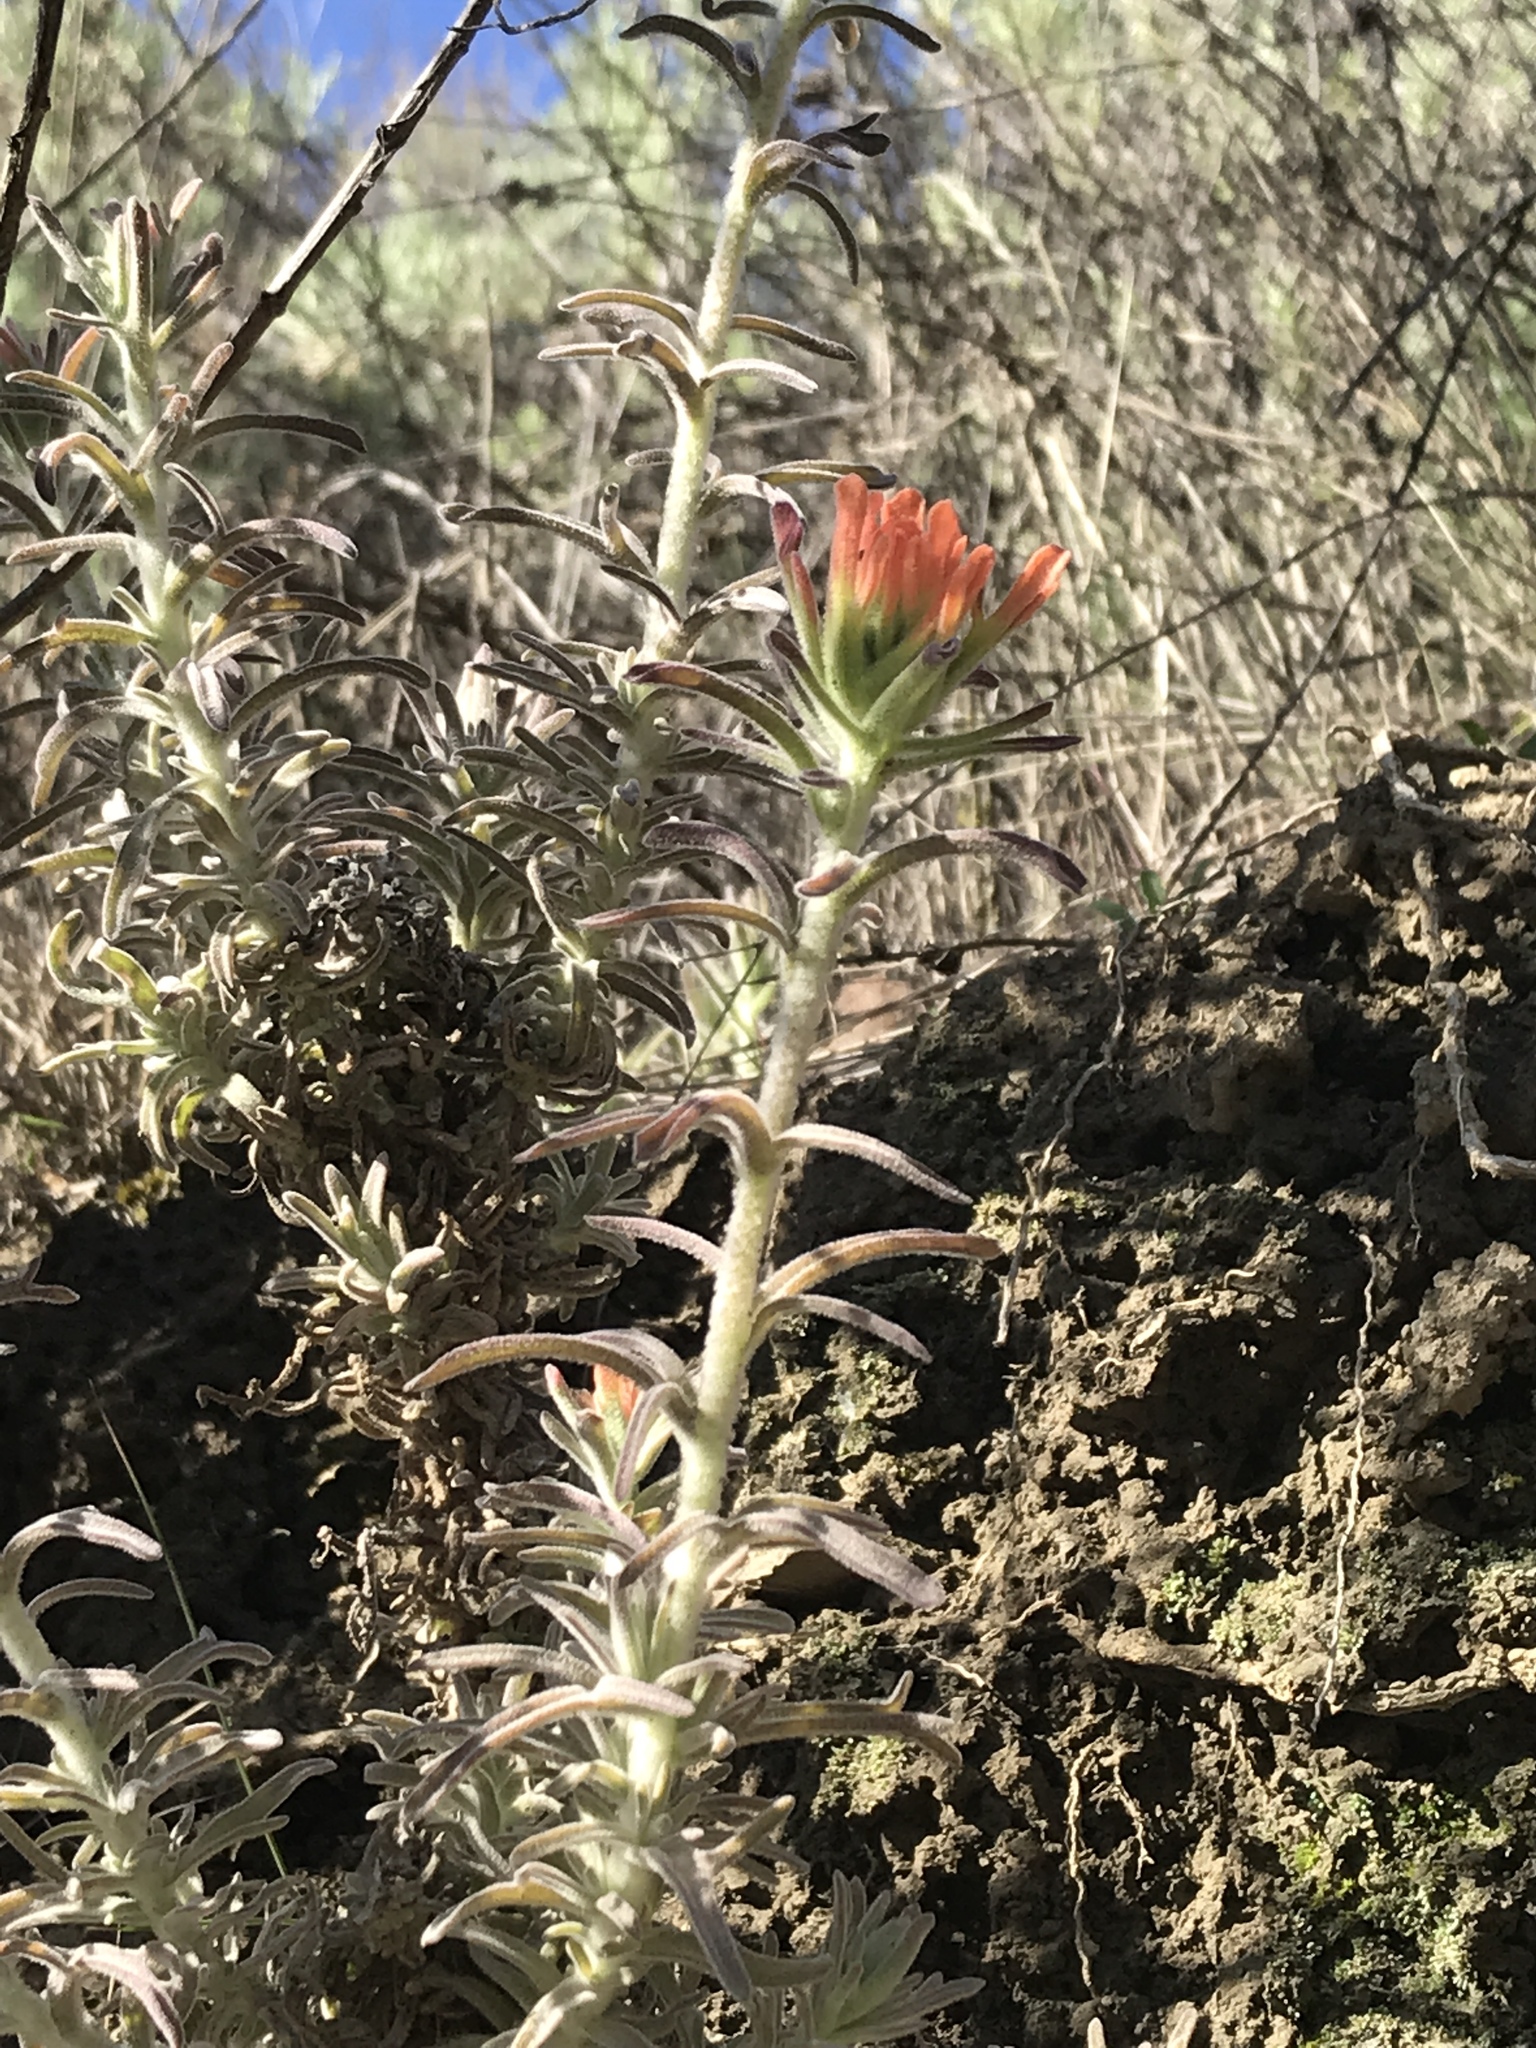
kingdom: Plantae
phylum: Tracheophyta
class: Magnoliopsida
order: Lamiales
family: Orobanchaceae
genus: Castilleja
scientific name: Castilleja foliolosa
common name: Woolly indian paintbrush
